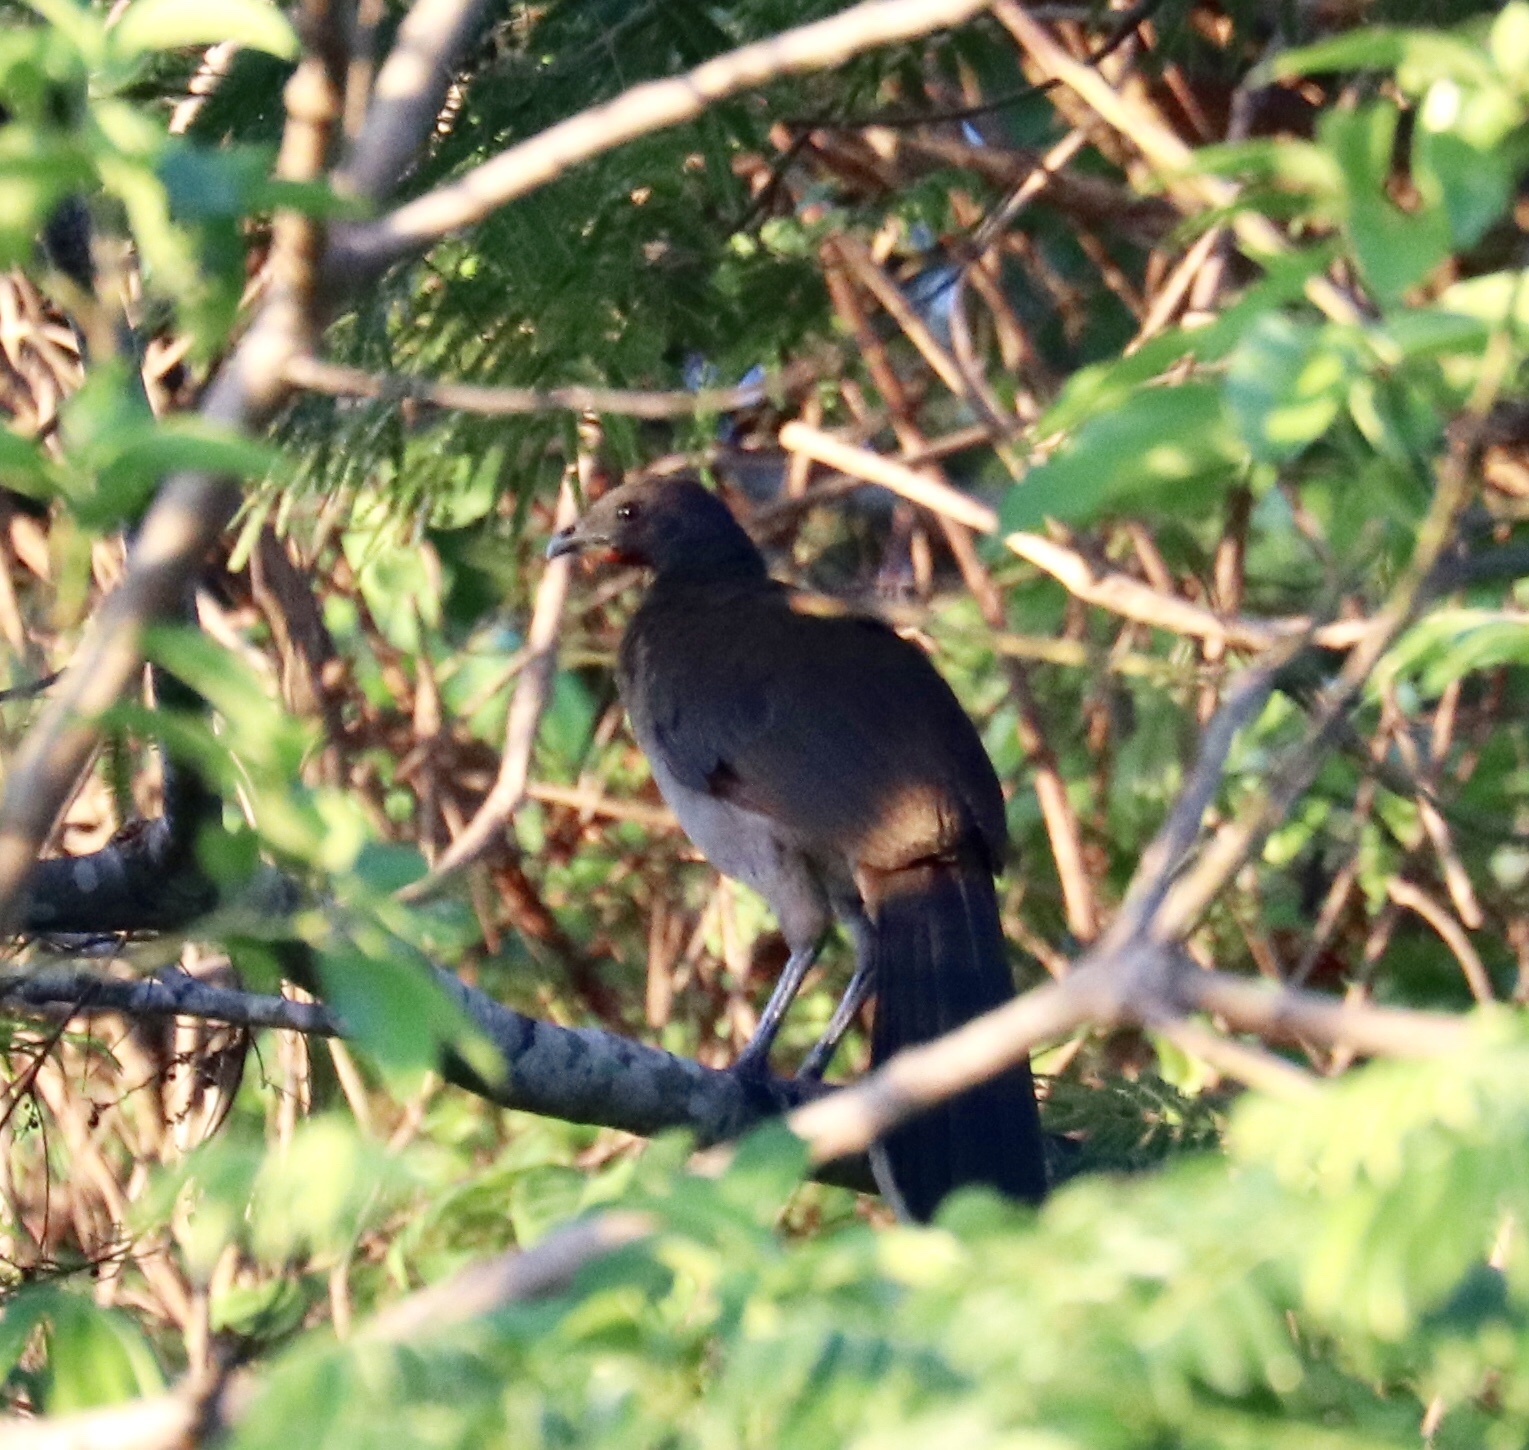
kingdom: Animalia
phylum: Chordata
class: Aves
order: Galliformes
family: Cracidae
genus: Ortalis
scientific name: Ortalis cinereiceps
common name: Grey-headed chachalaca
